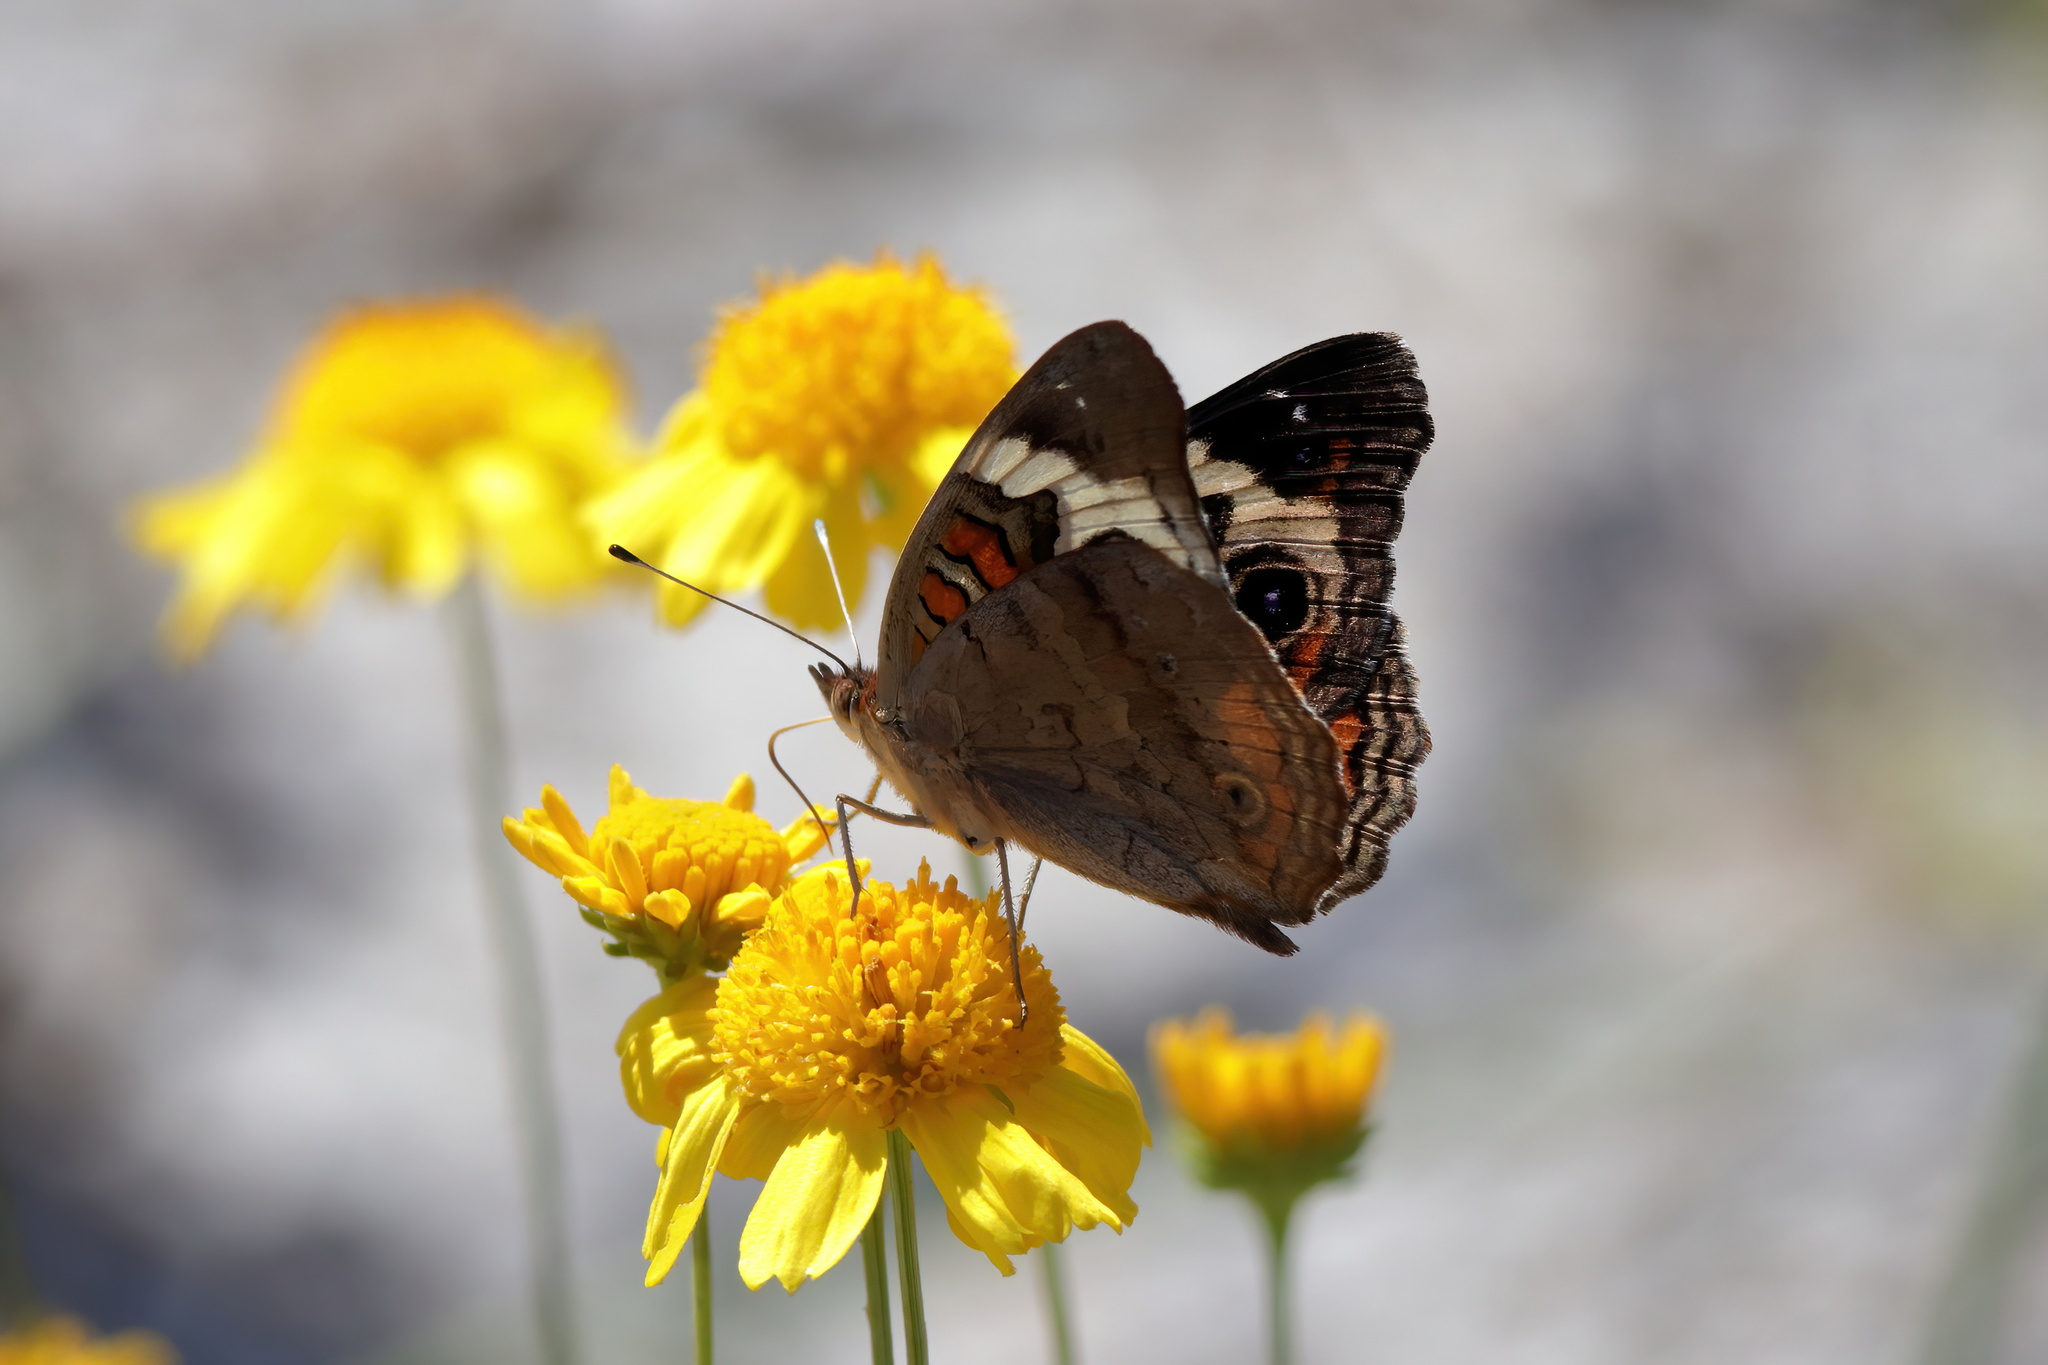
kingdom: Animalia
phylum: Arthropoda
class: Insecta
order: Lepidoptera
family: Nymphalidae
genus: Junonia
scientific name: Junonia coenia
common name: Common buckeye
